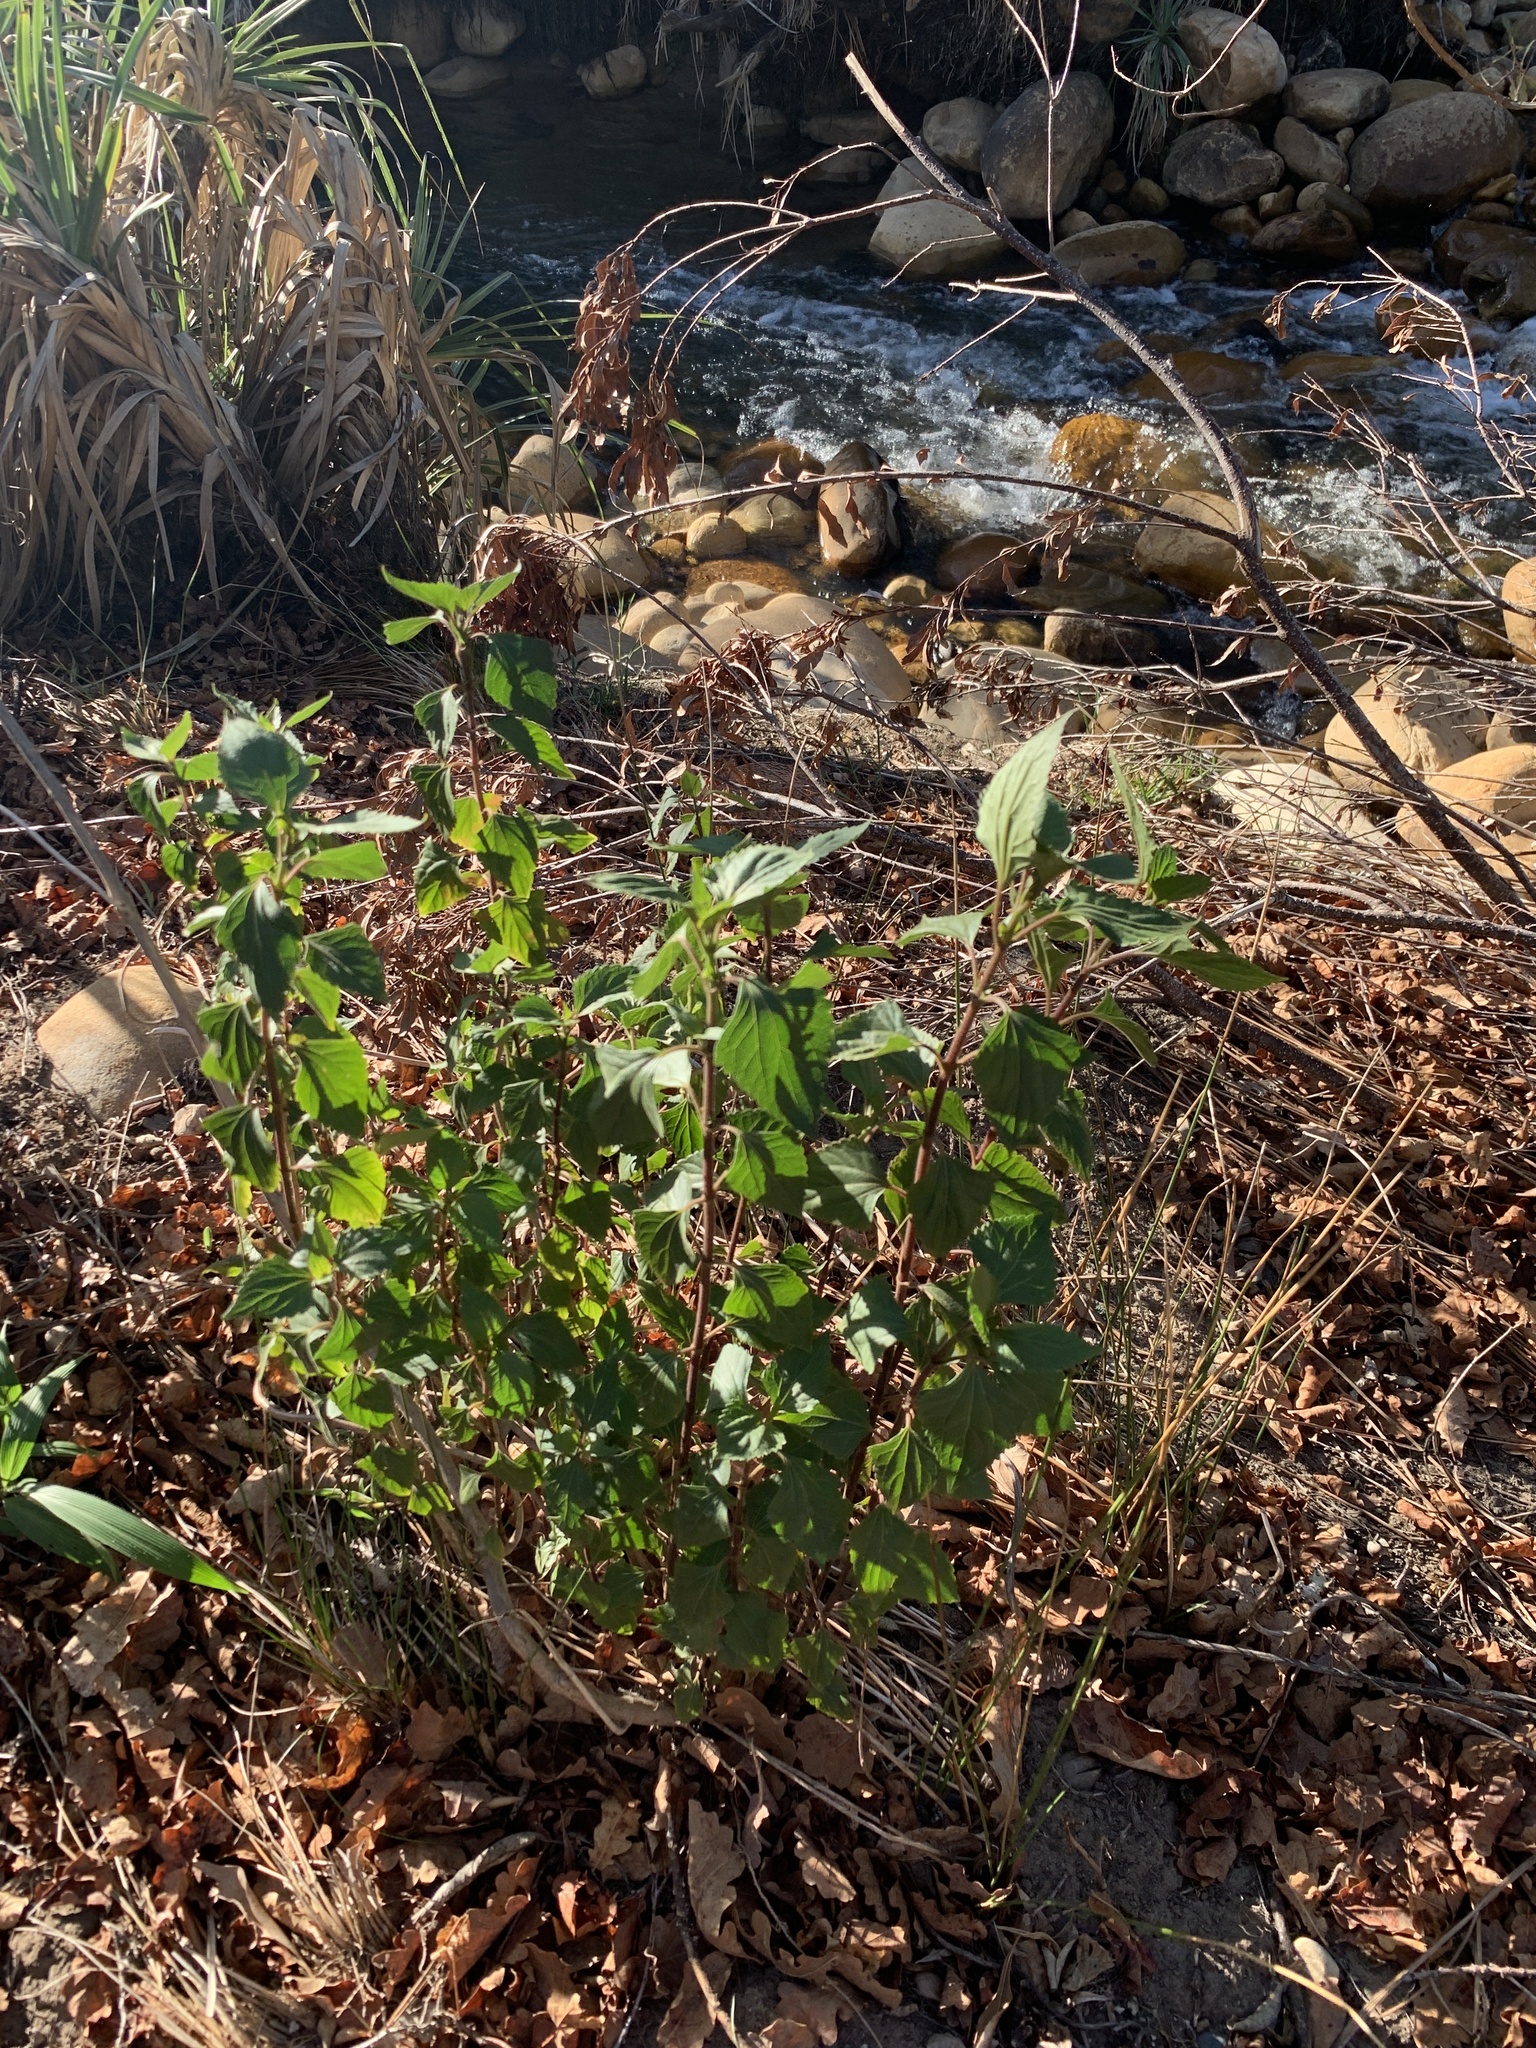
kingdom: Plantae
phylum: Tracheophyta
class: Magnoliopsida
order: Asterales
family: Asteraceae
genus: Ageratina
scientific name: Ageratina adenophora
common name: Sticky snakeroot
